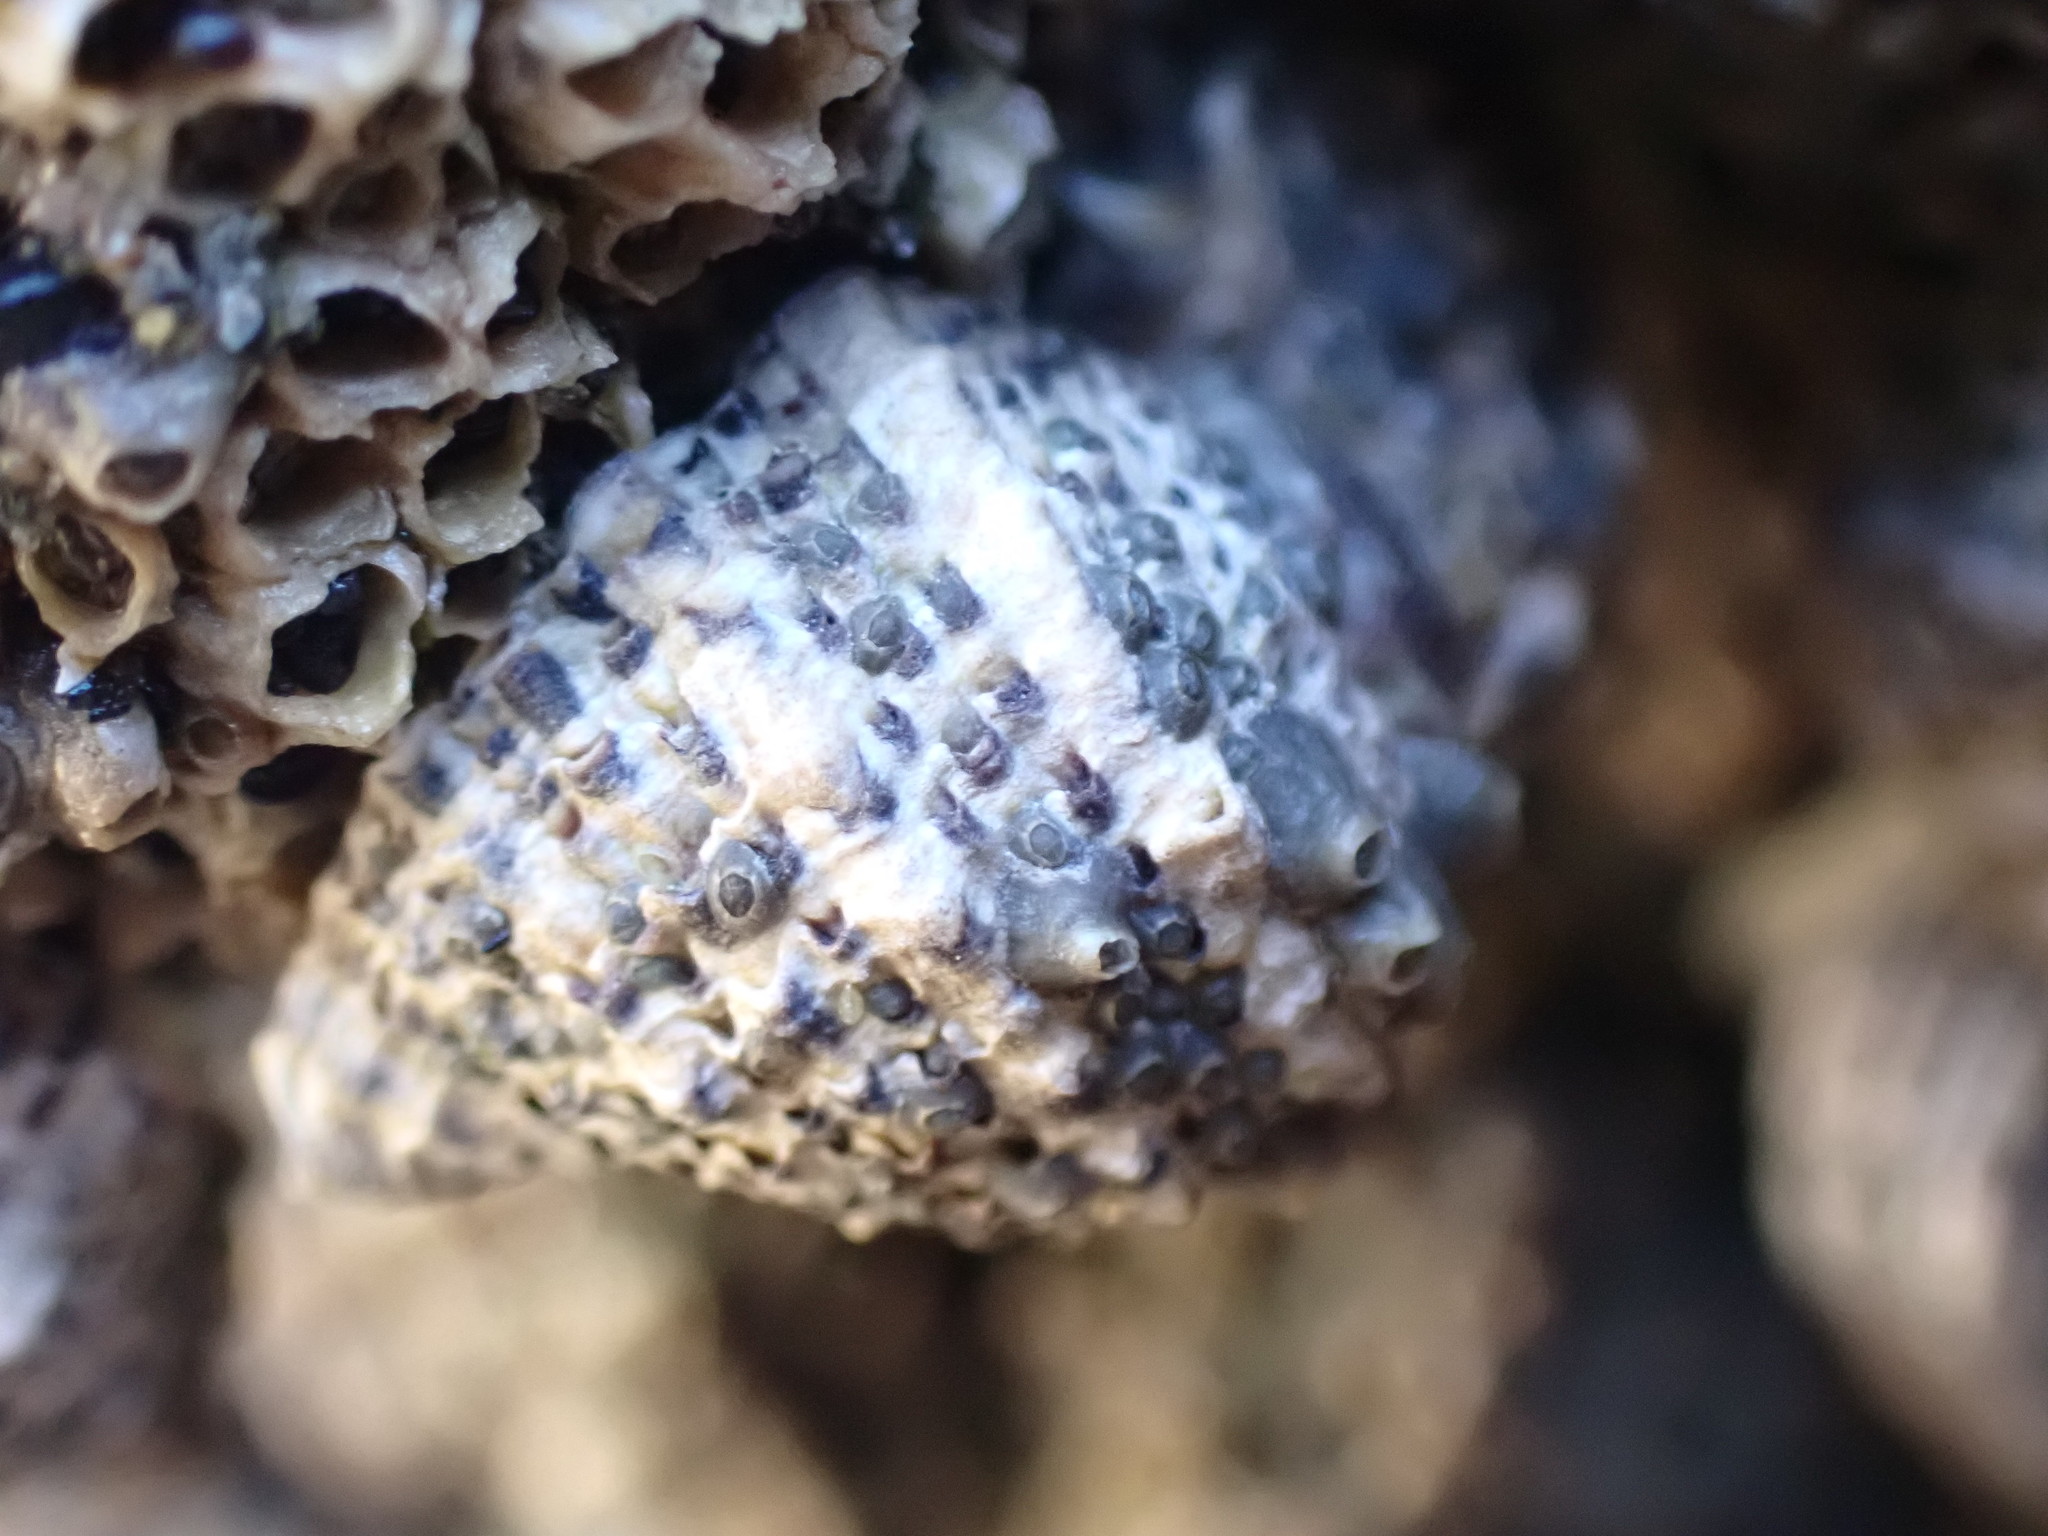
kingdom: Animalia
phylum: Mollusca
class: Gastropoda
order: Neogastropoda
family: Muricidae
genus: Haustrum
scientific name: Haustrum scobina
